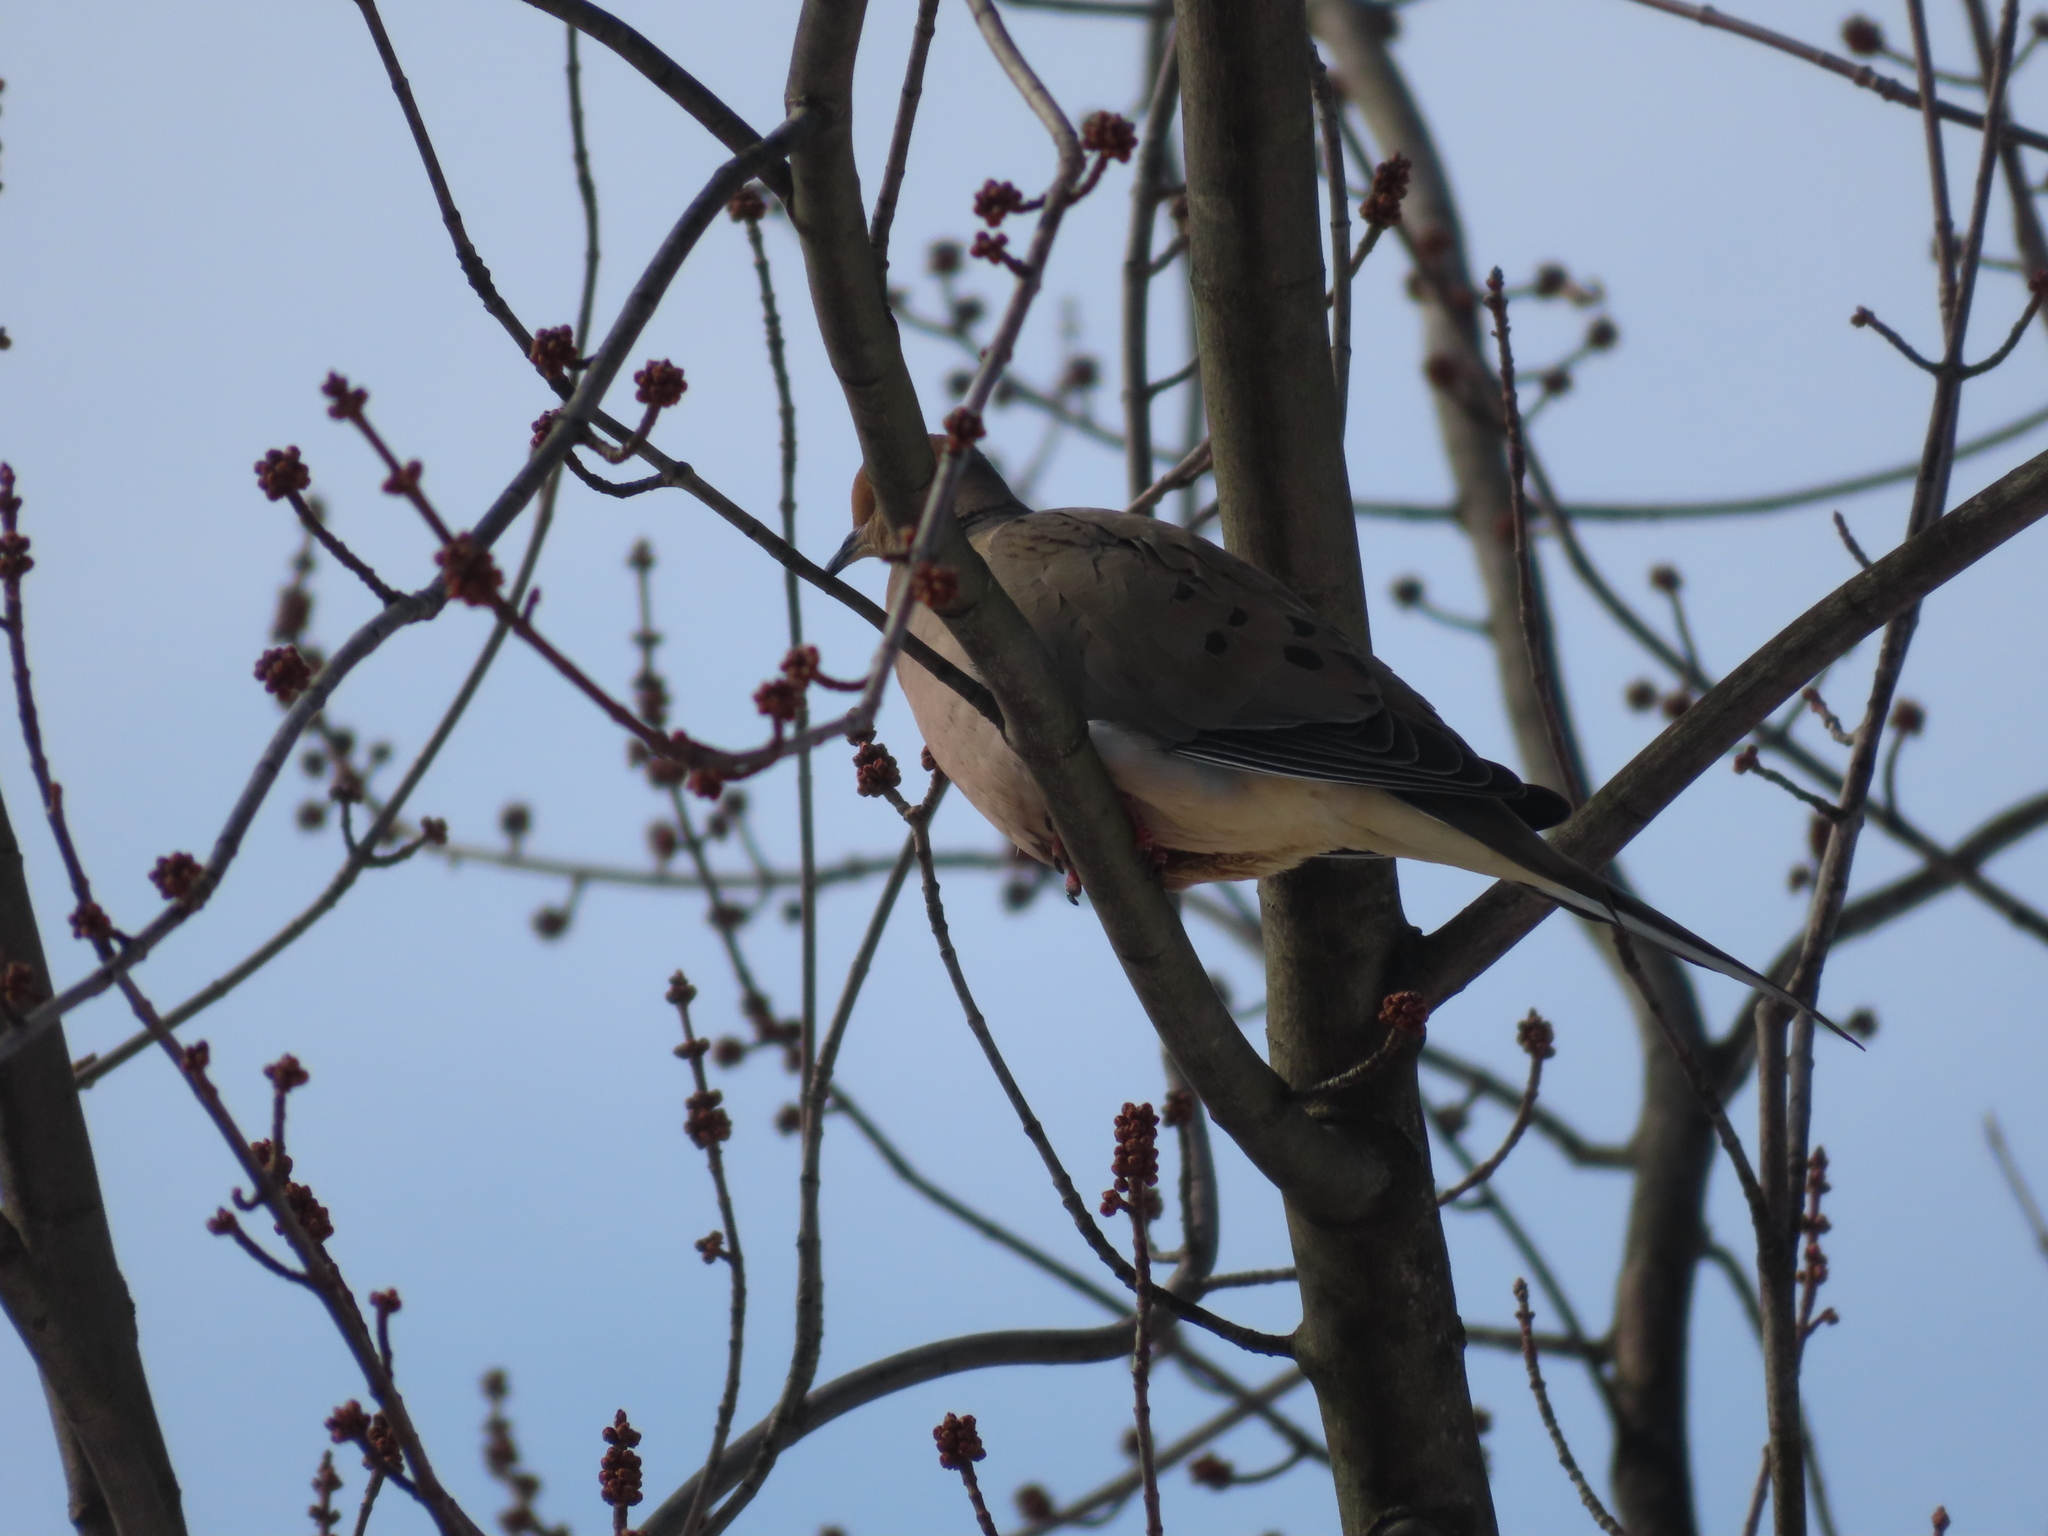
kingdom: Animalia
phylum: Chordata
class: Aves
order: Columbiformes
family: Columbidae
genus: Zenaida
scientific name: Zenaida macroura
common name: Mourning dove
